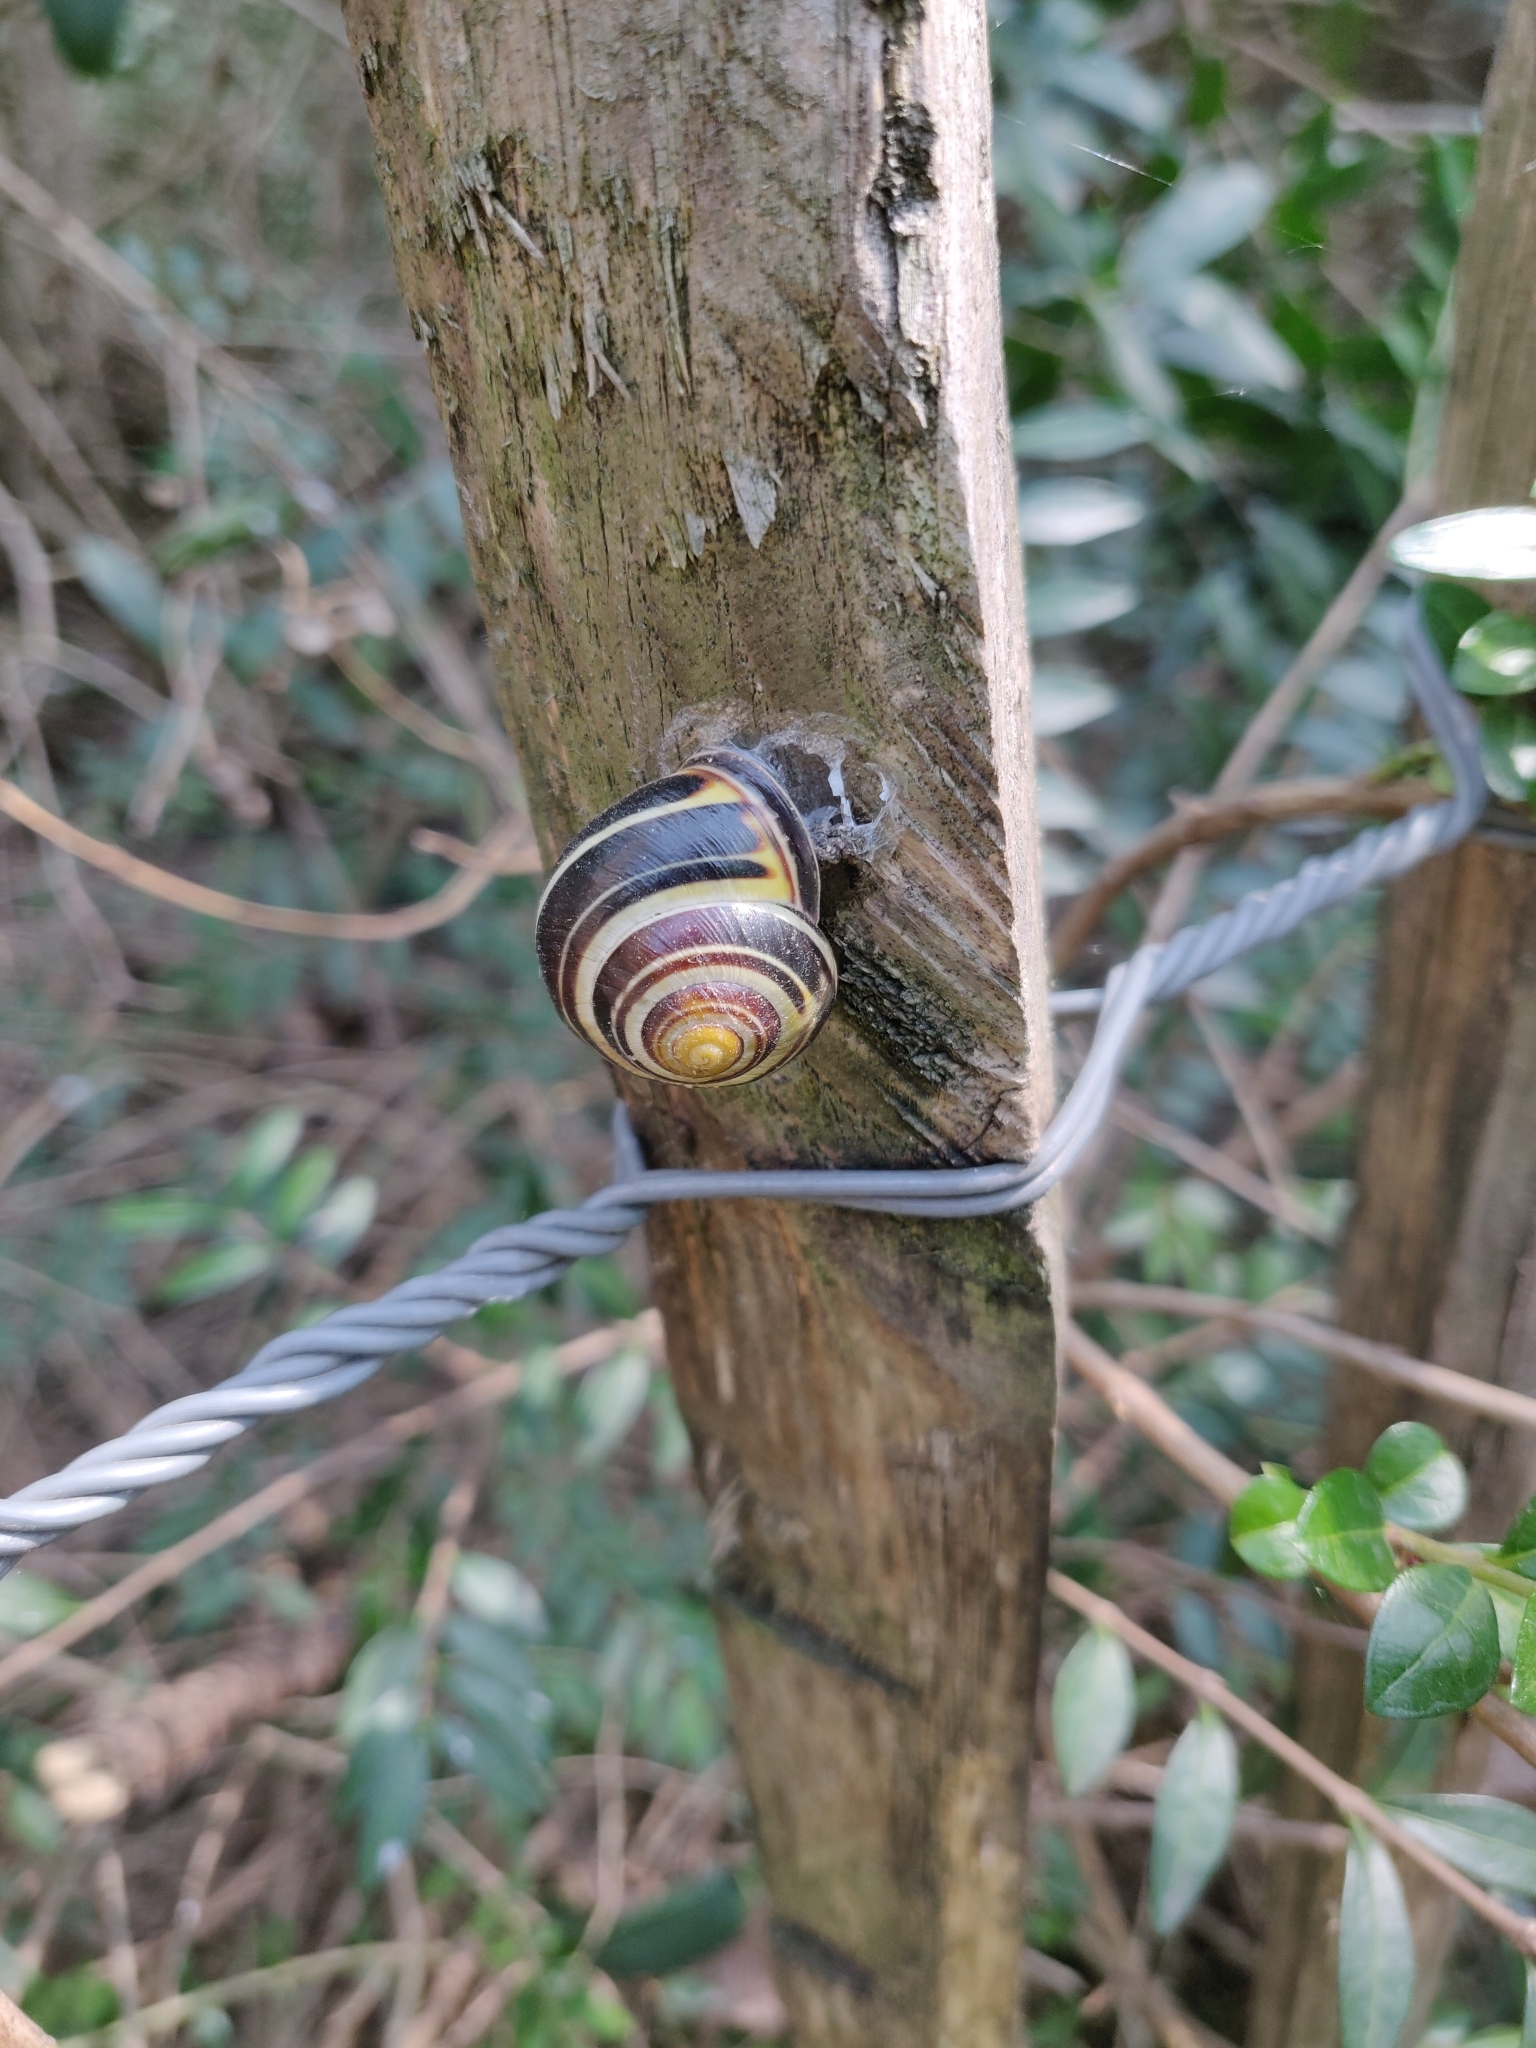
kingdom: Animalia
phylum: Mollusca
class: Gastropoda
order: Stylommatophora
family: Helicidae
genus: Cepaea
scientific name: Cepaea nemoralis
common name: Grovesnail
